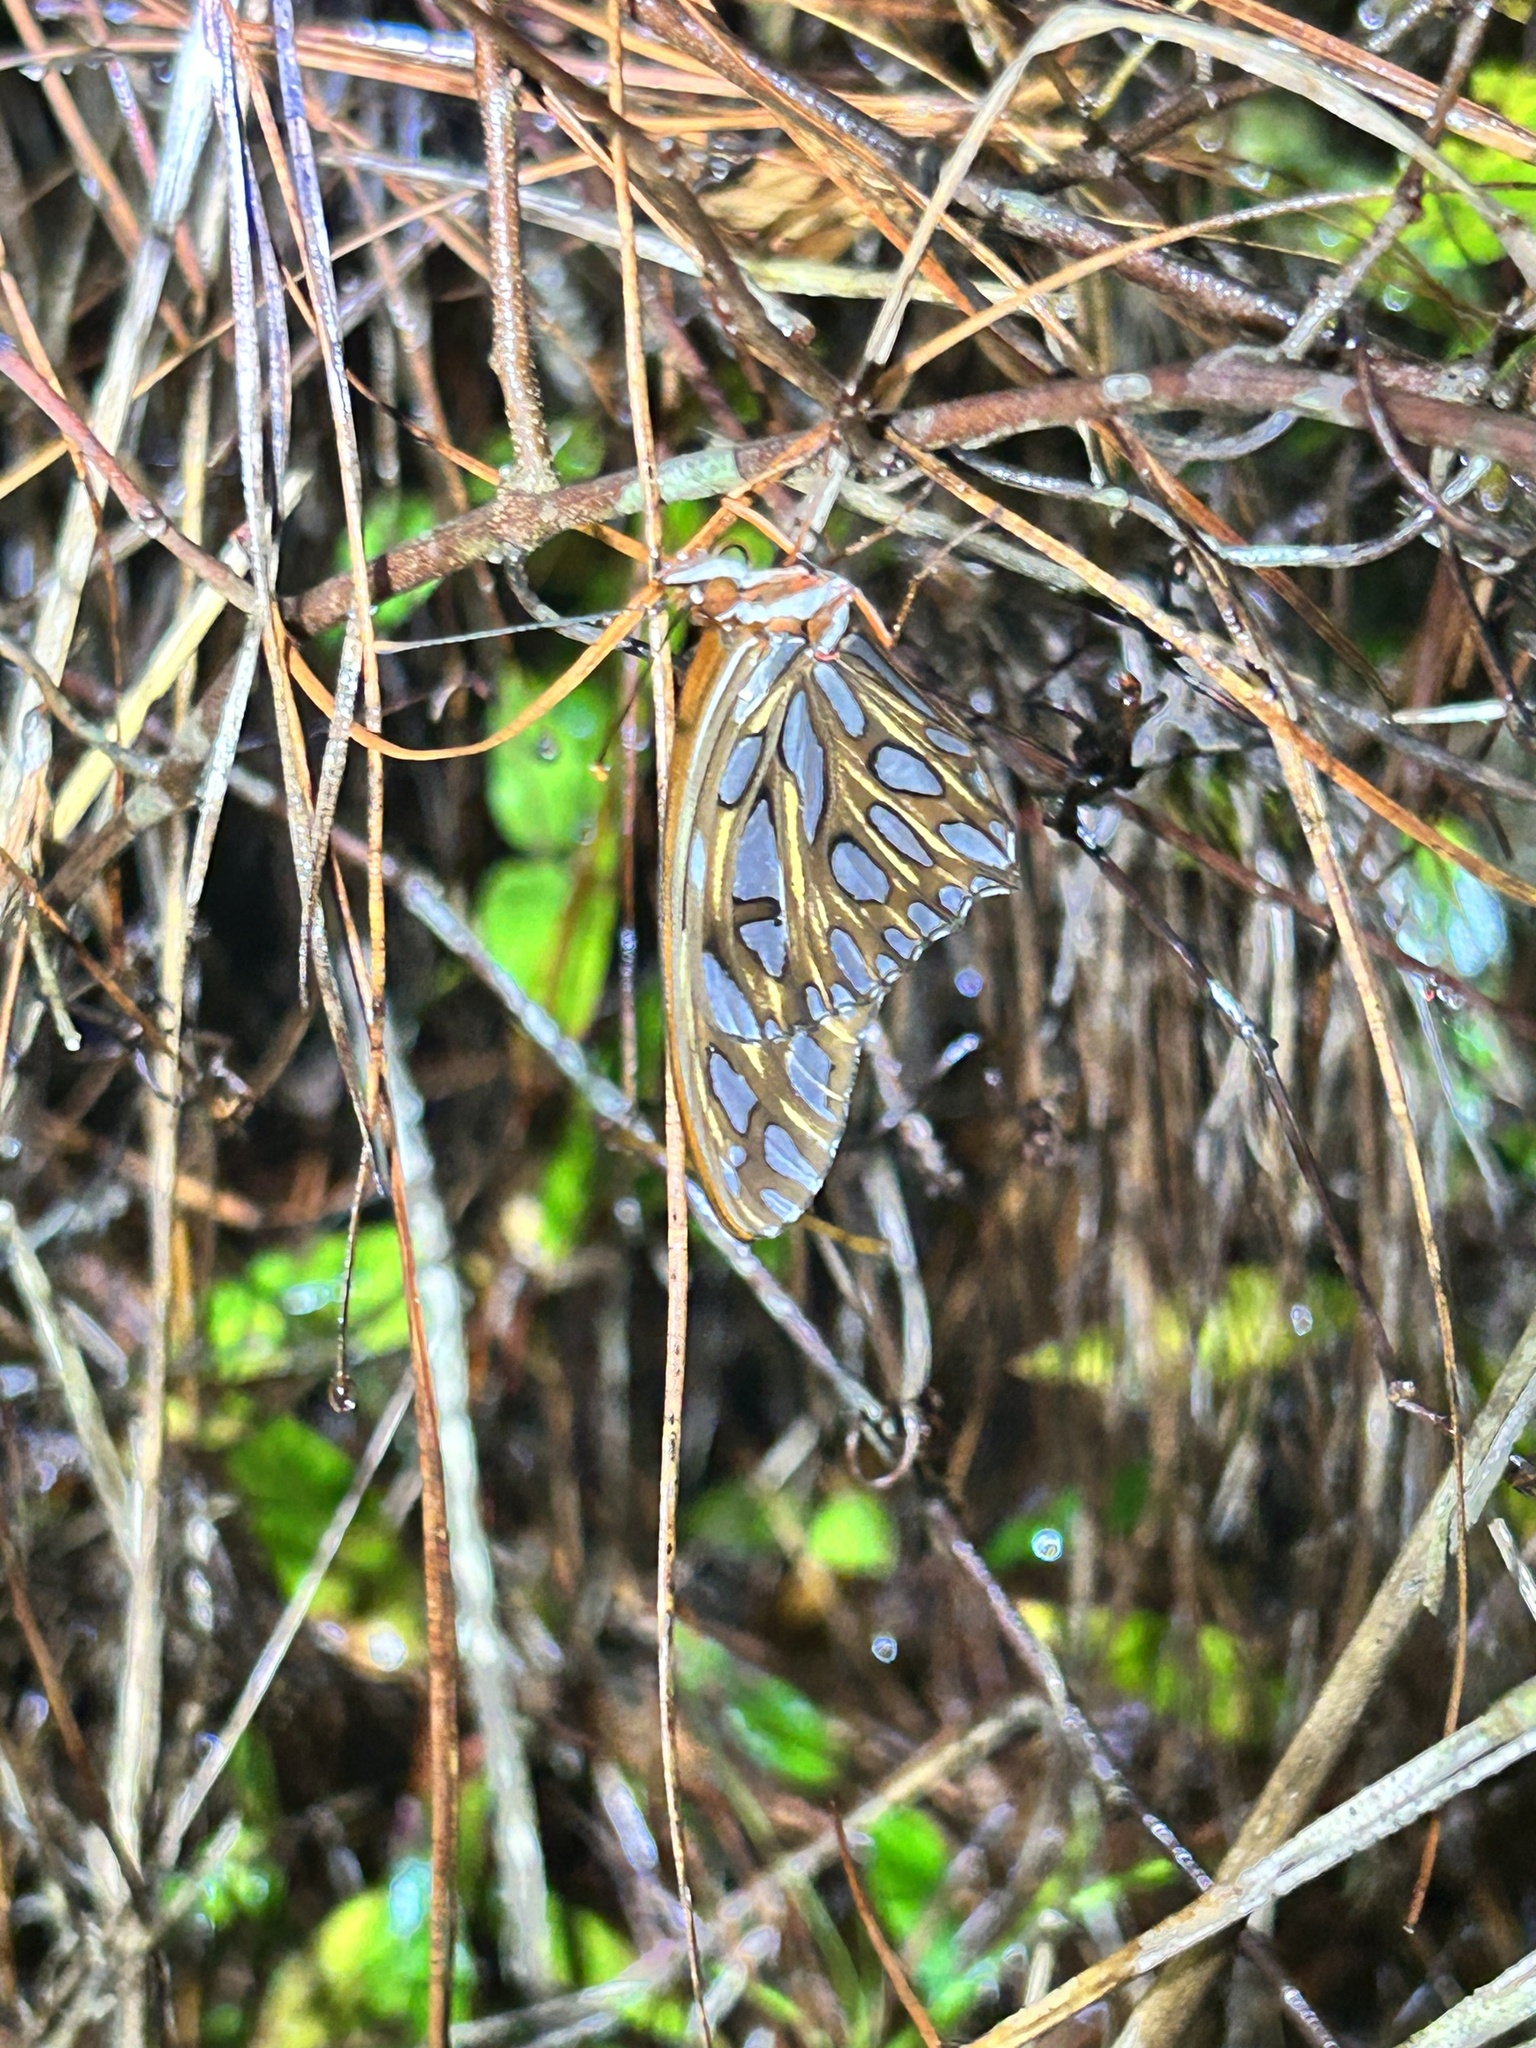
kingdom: Animalia
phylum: Arthropoda
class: Insecta
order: Lepidoptera
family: Nymphalidae
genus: Dione
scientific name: Dione vanillae
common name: Gulf fritillary
